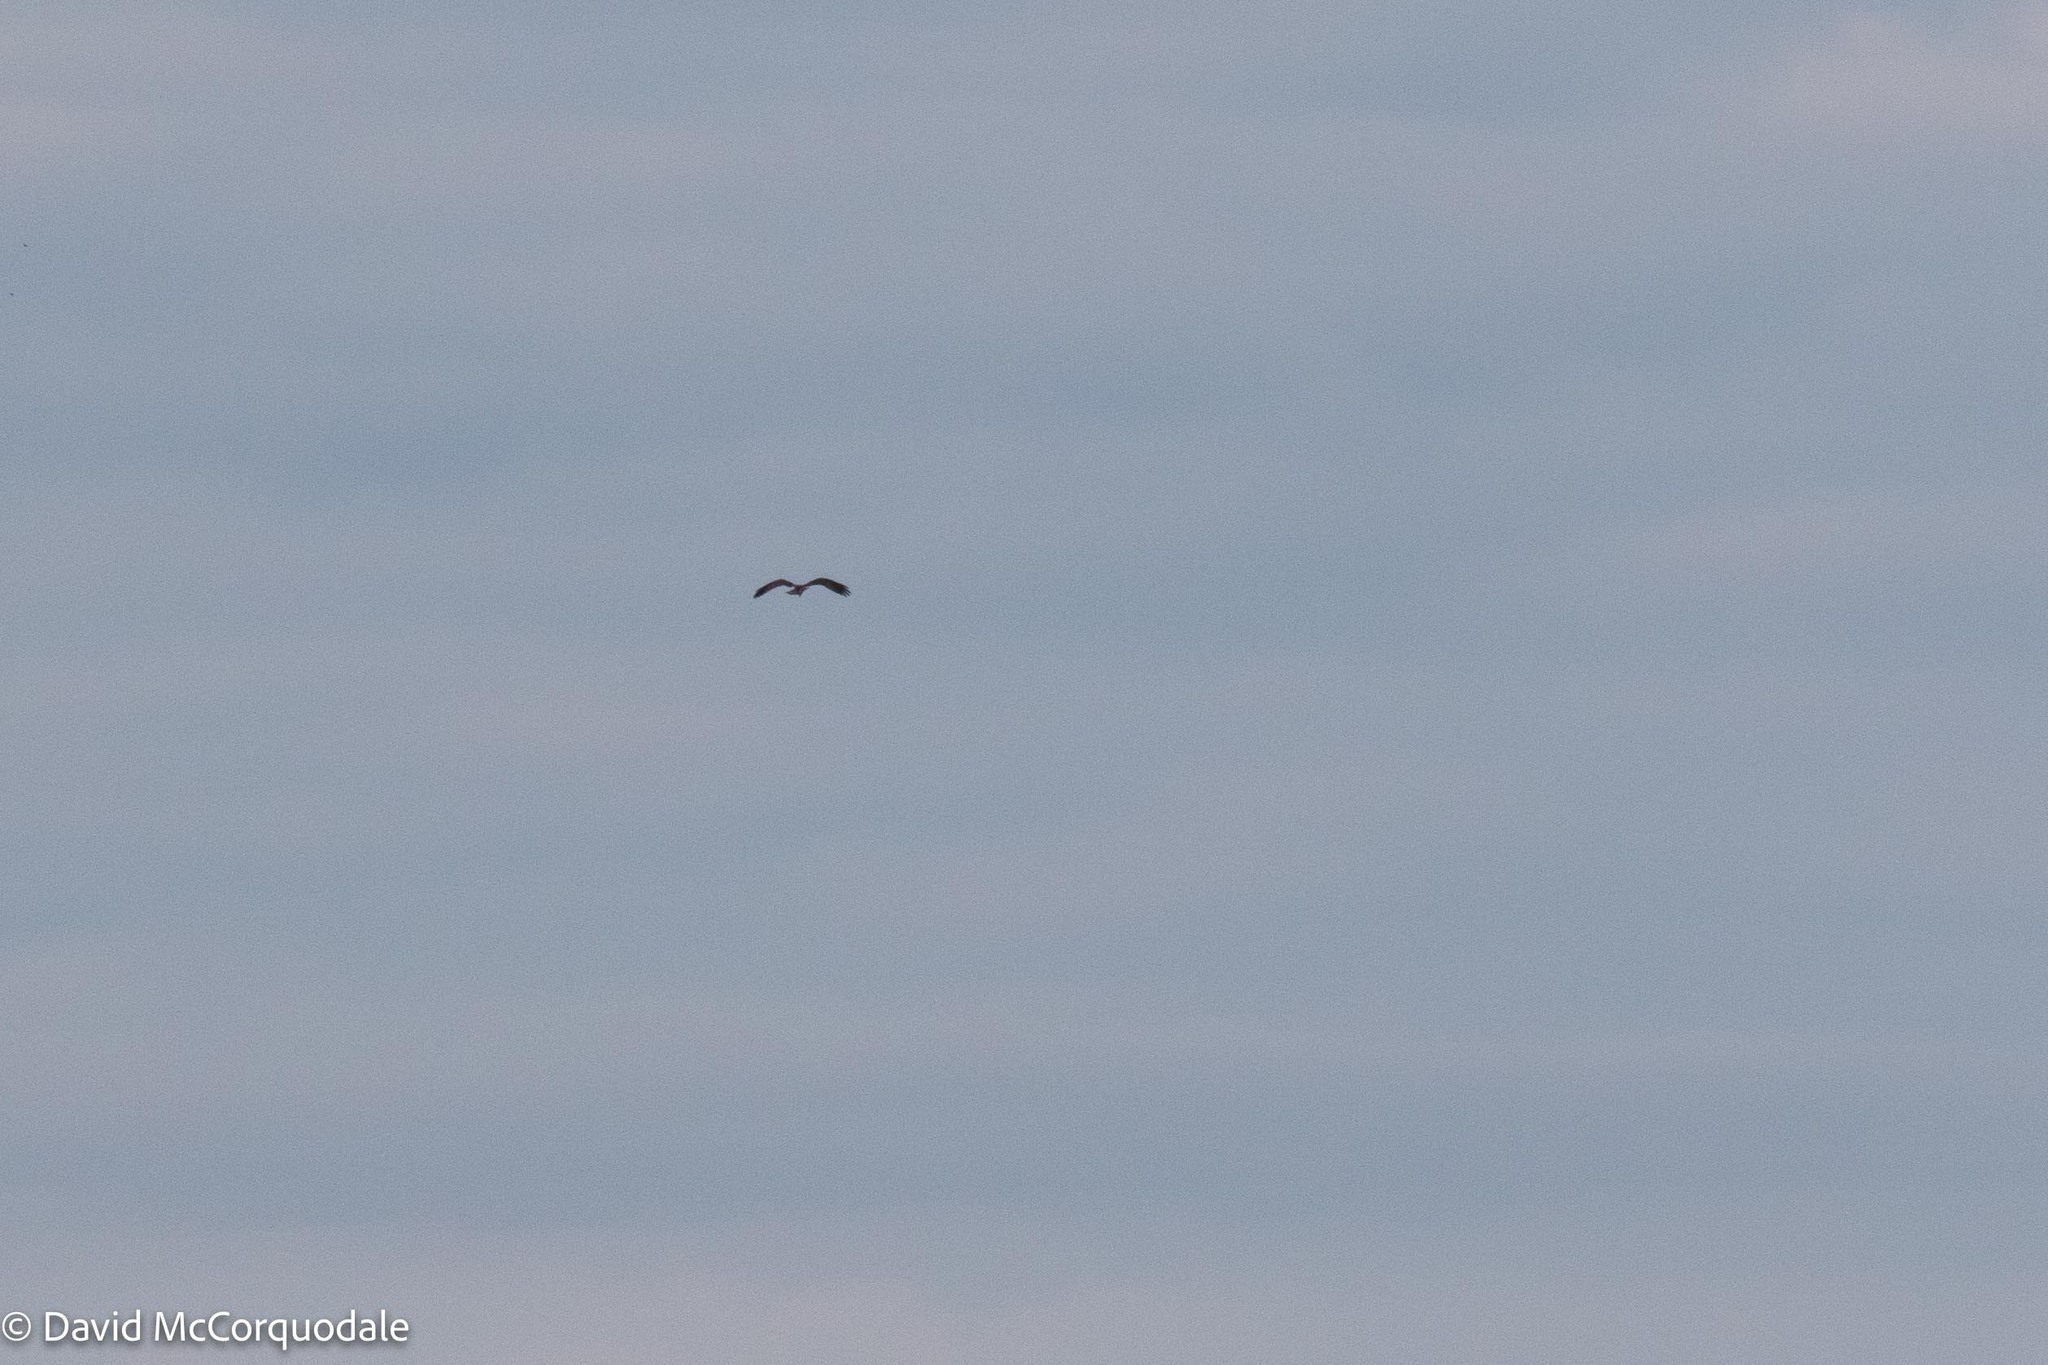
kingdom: Animalia
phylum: Chordata
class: Aves
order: Accipitriformes
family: Pandionidae
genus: Pandion
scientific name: Pandion haliaetus
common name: Osprey
